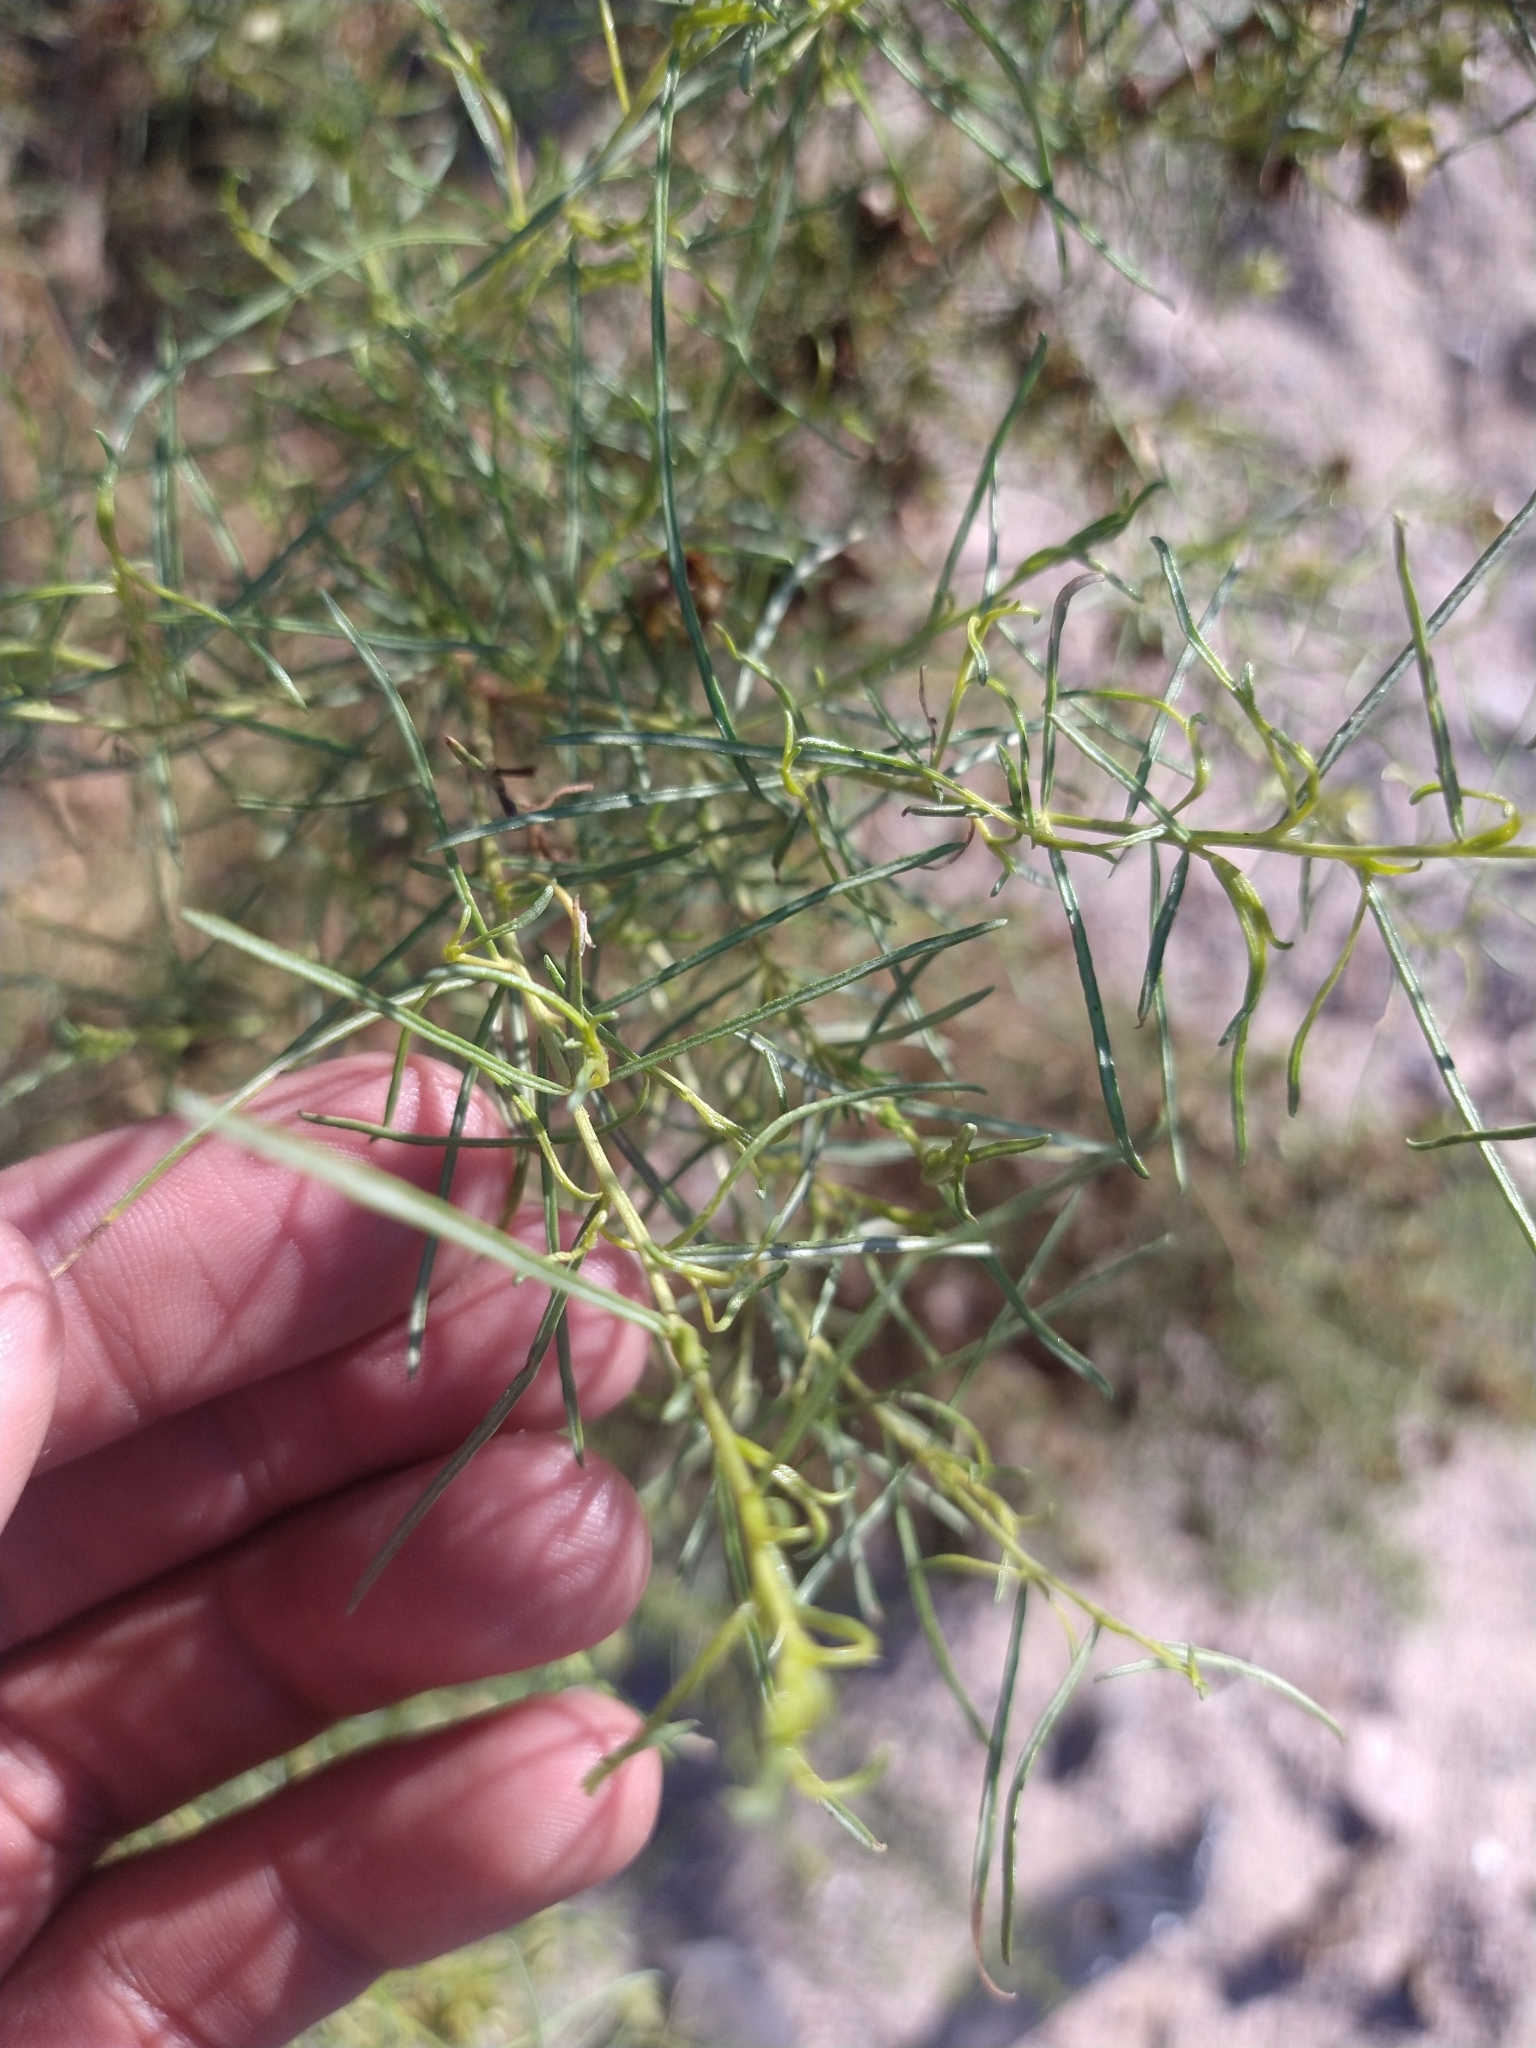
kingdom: Plantae
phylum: Tracheophyta
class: Magnoliopsida
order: Asterales
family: Asteraceae
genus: Ambrosia
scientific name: Ambrosia monogyra
